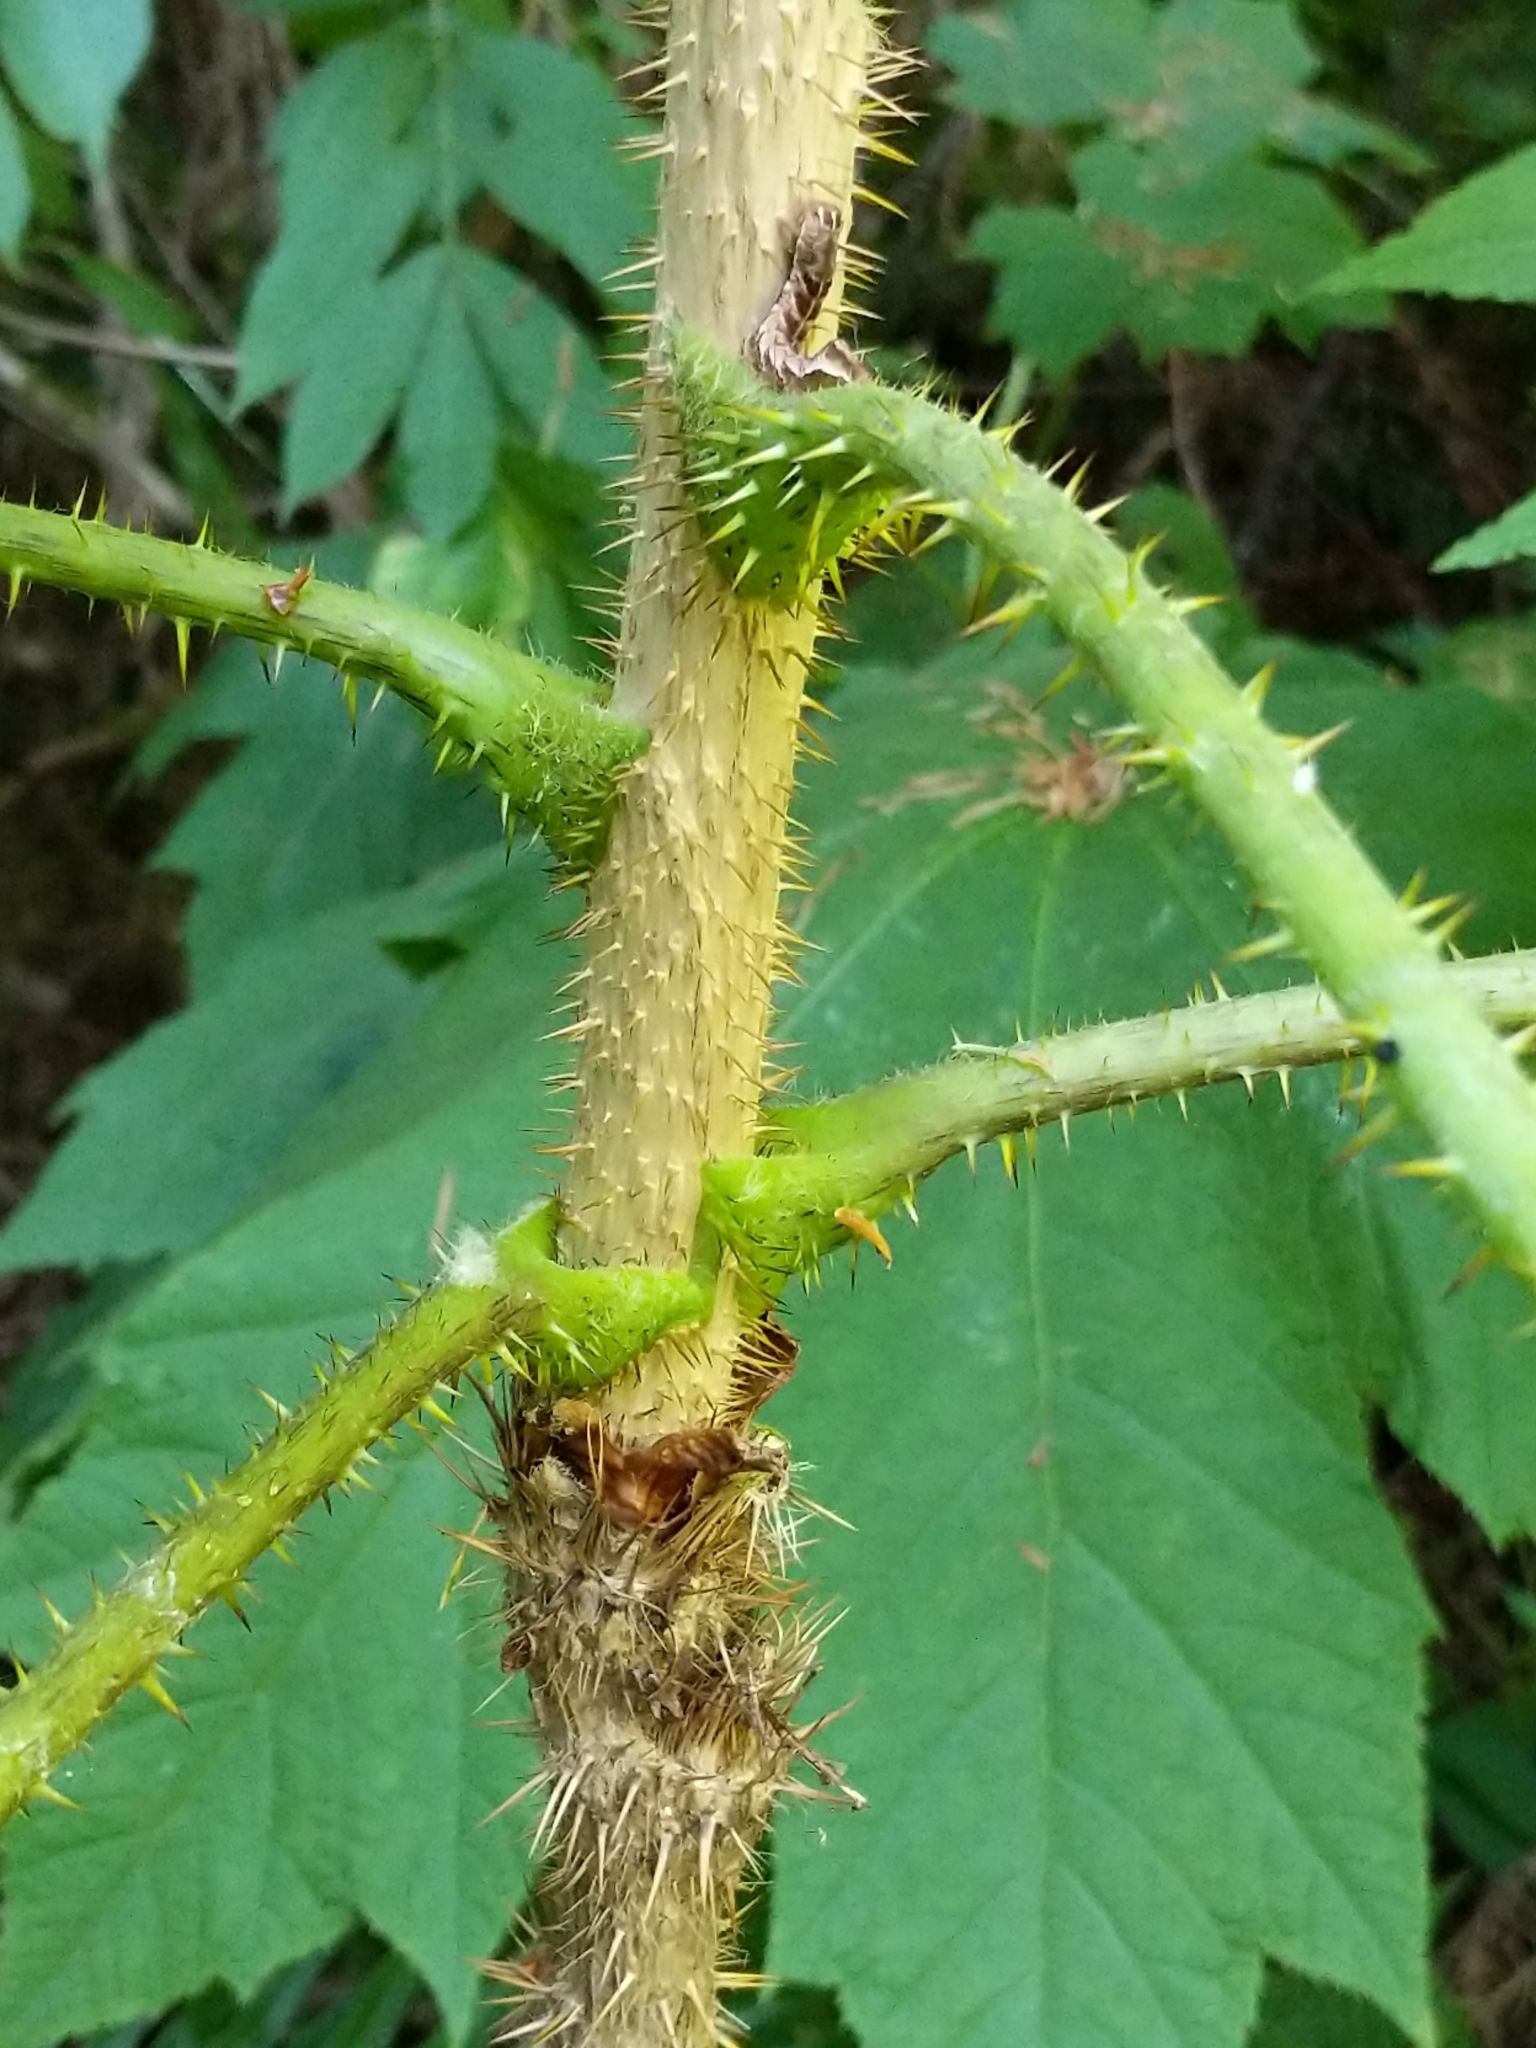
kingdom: Plantae
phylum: Tracheophyta
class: Magnoliopsida
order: Apiales
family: Araliaceae
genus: Oplopanax
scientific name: Oplopanax horridus
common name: Devil's walking-stick
